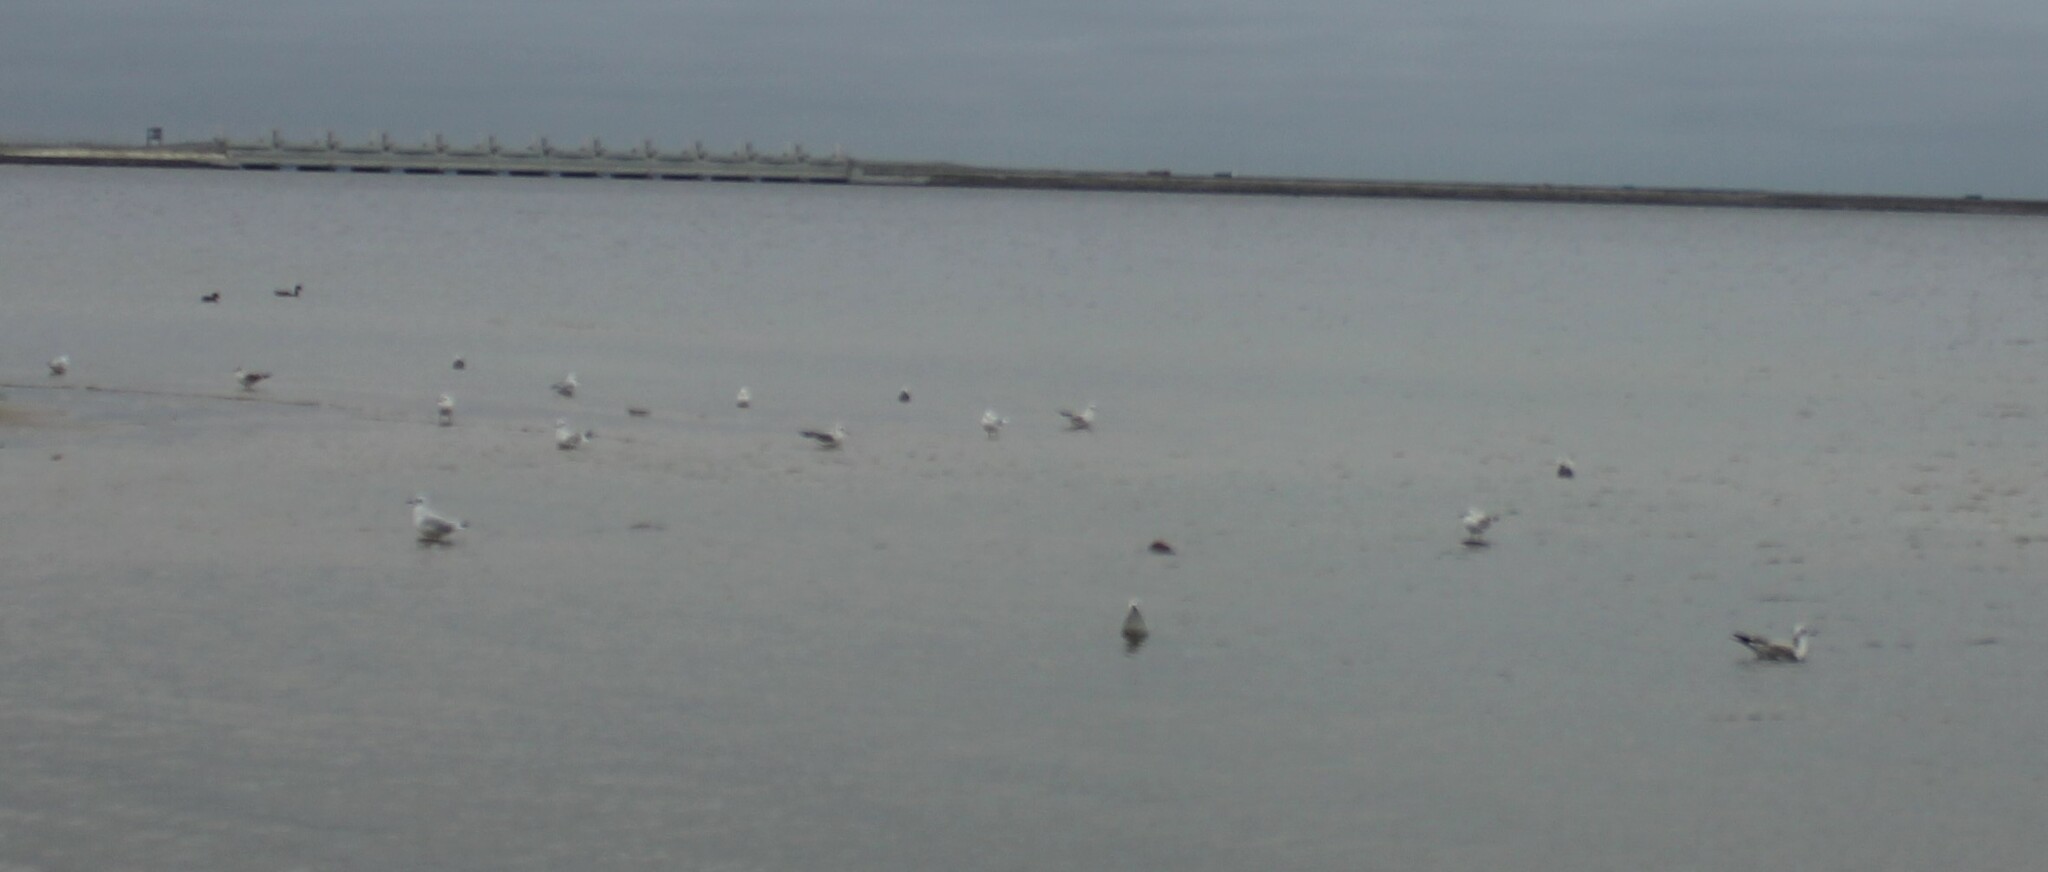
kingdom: Animalia
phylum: Chordata
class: Aves
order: Charadriiformes
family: Laridae
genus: Chroicocephalus
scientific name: Chroicocephalus ridibundus
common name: Black-headed gull
